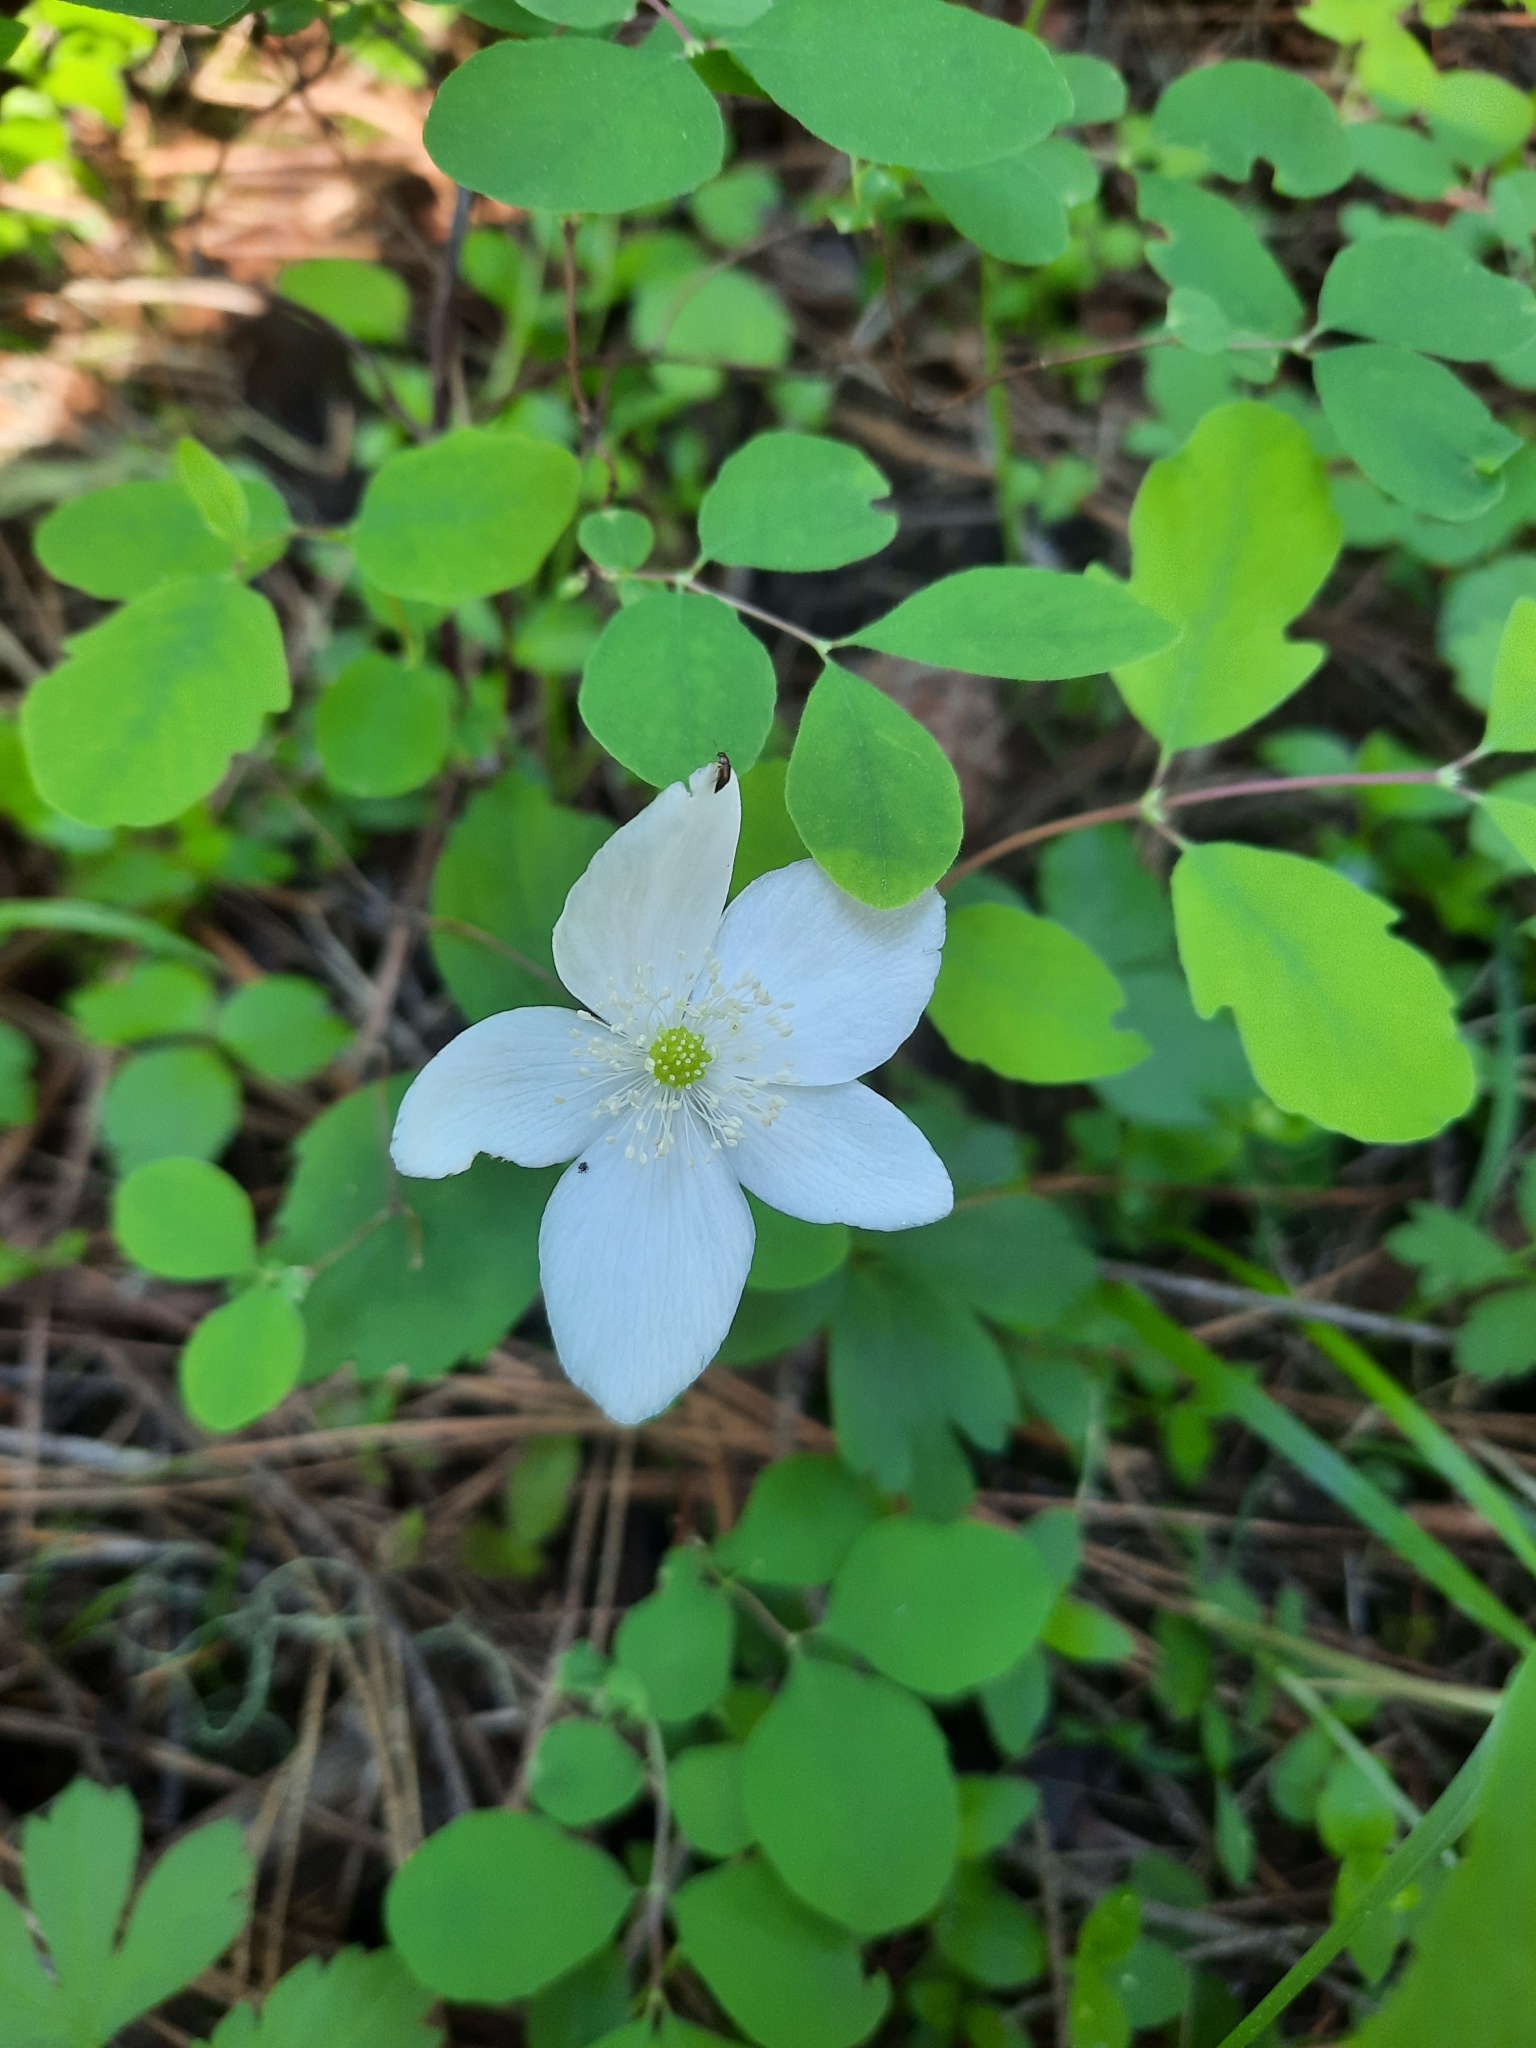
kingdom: Plantae
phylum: Tracheophyta
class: Magnoliopsida
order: Ranunculales
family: Ranunculaceae
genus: Anemonastrum
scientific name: Anemonastrum deltoideum
